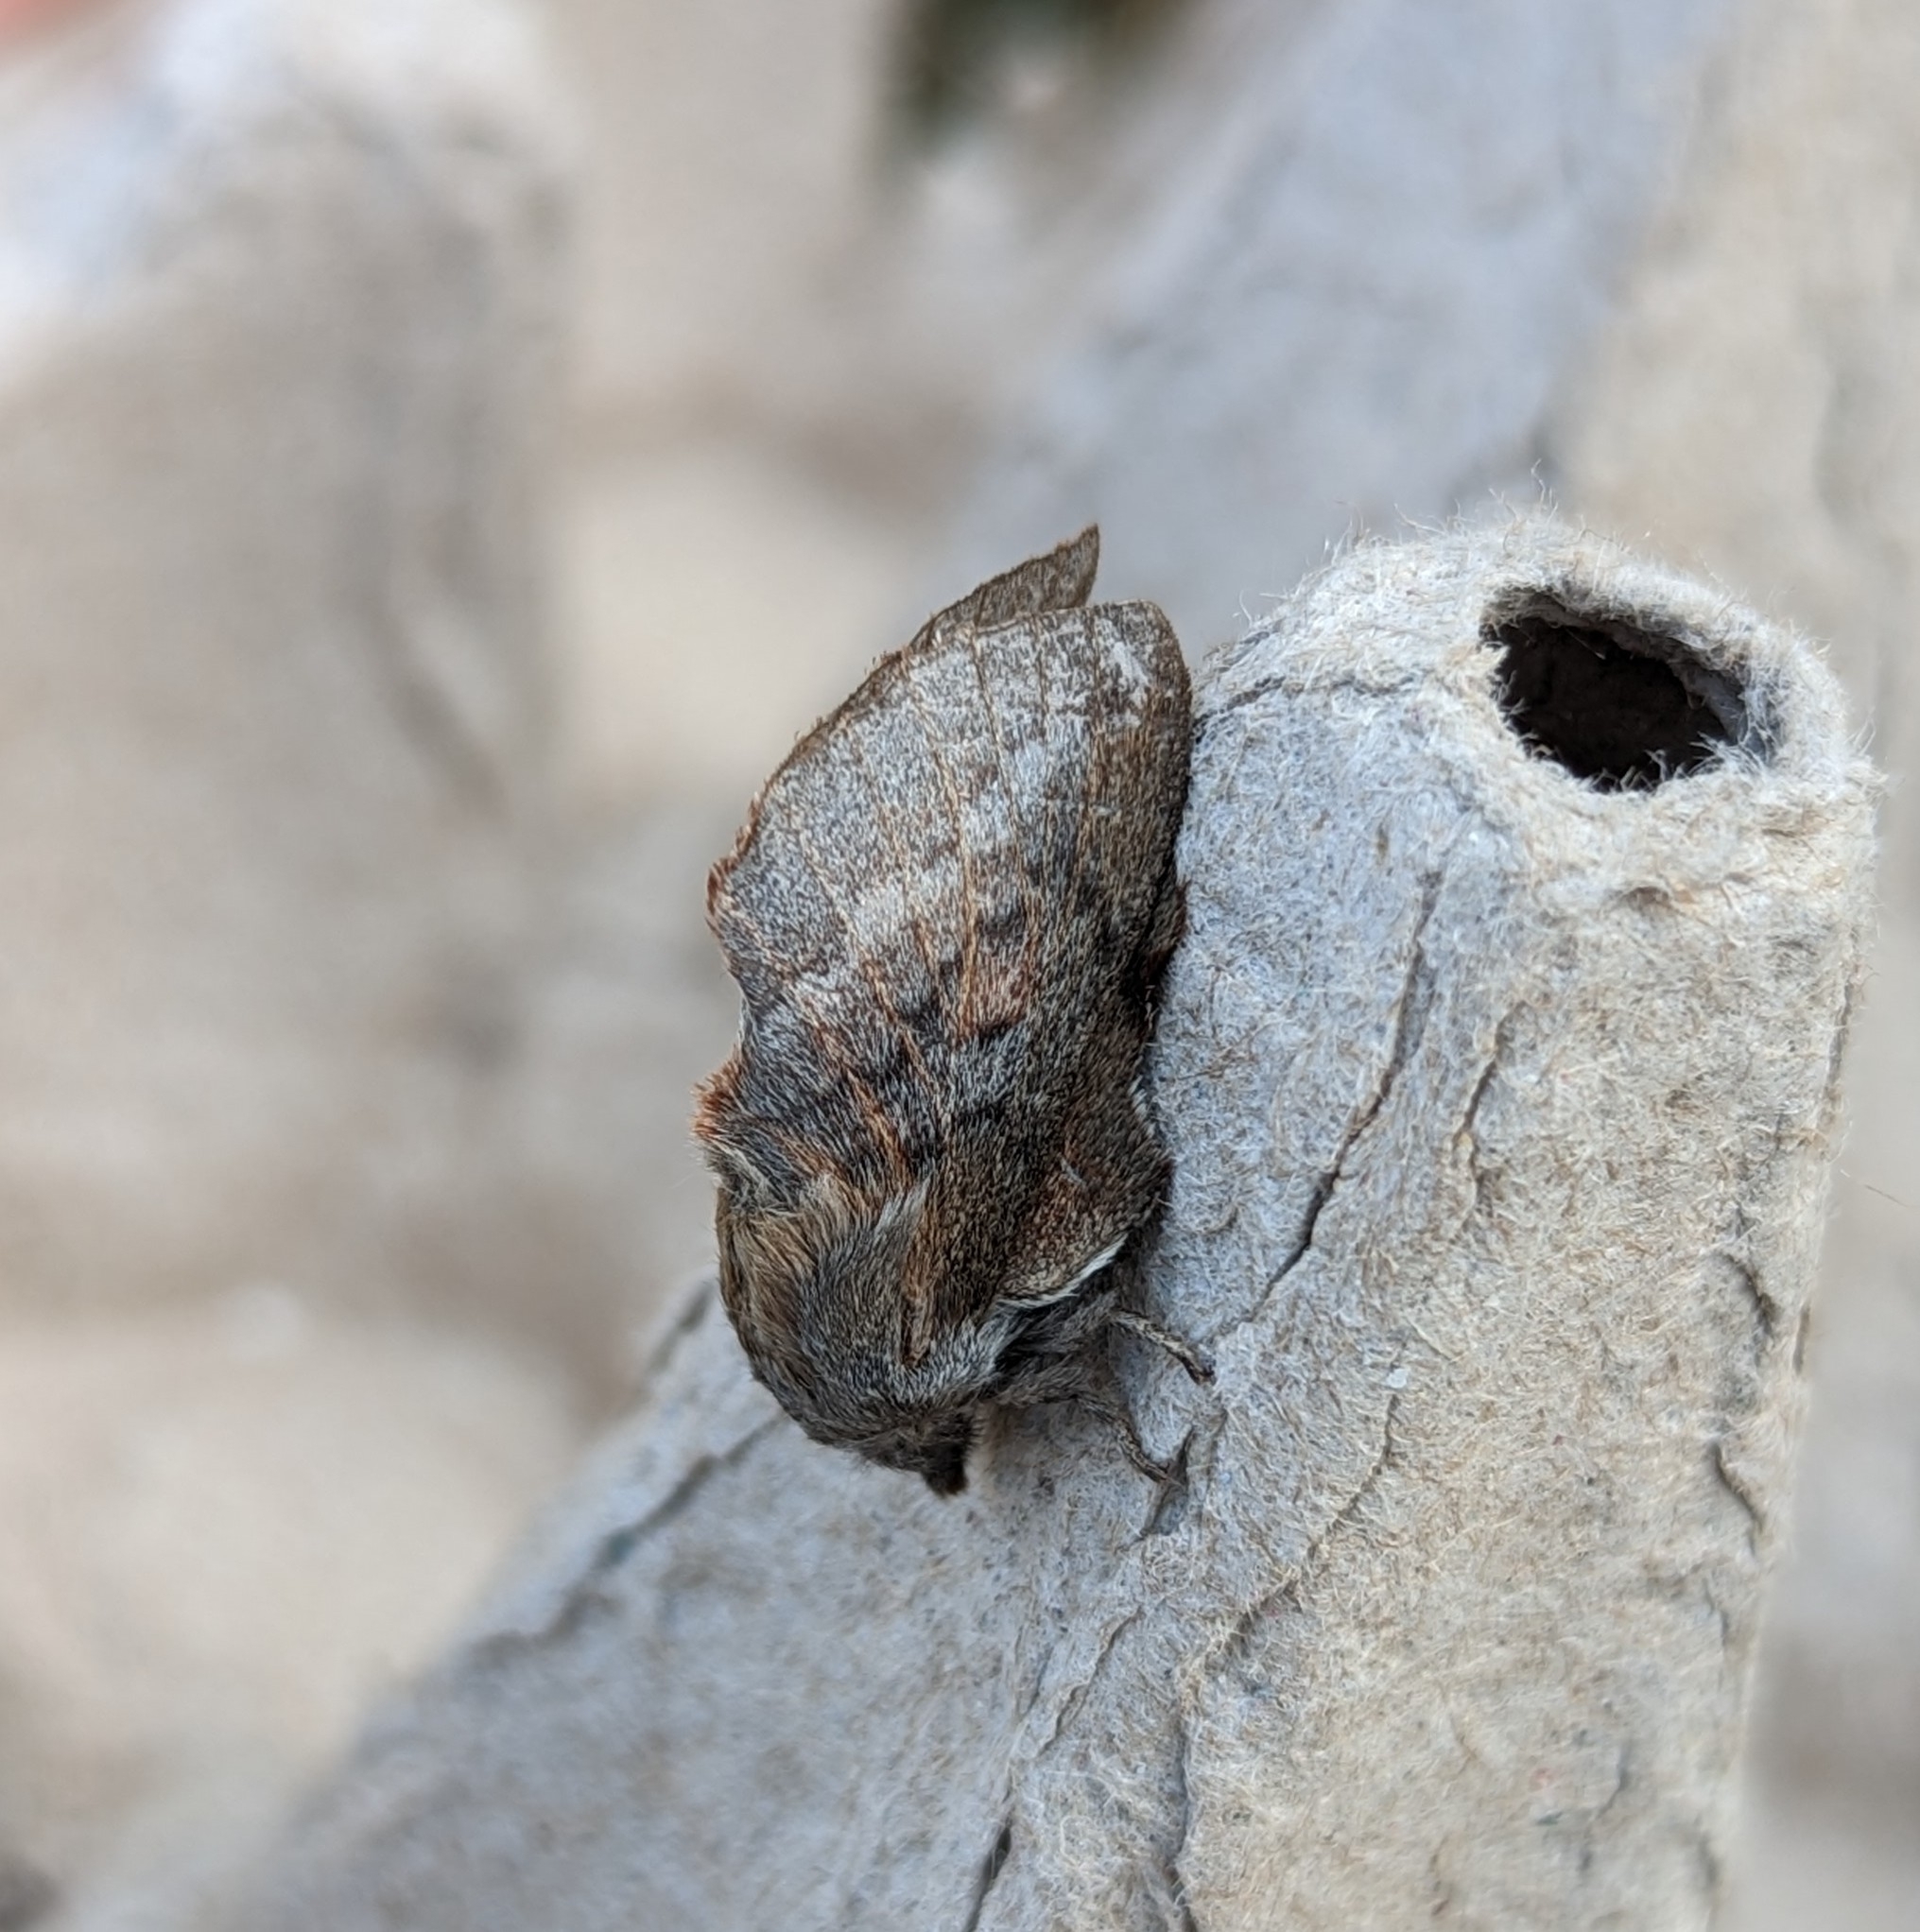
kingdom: Animalia
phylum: Arthropoda
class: Insecta
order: Lepidoptera
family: Lasiocampidae
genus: Phyllodesma
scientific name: Phyllodesma americana
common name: American lappet moth
